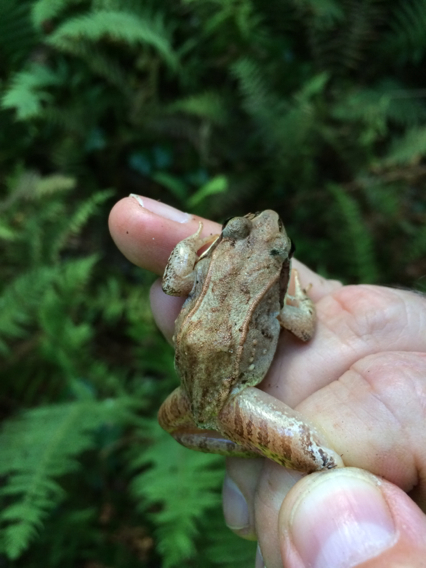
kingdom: Animalia
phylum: Chordata
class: Amphibia
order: Anura
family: Ranidae
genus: Lithobates
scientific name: Lithobates sylvaticus
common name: Wood frog
